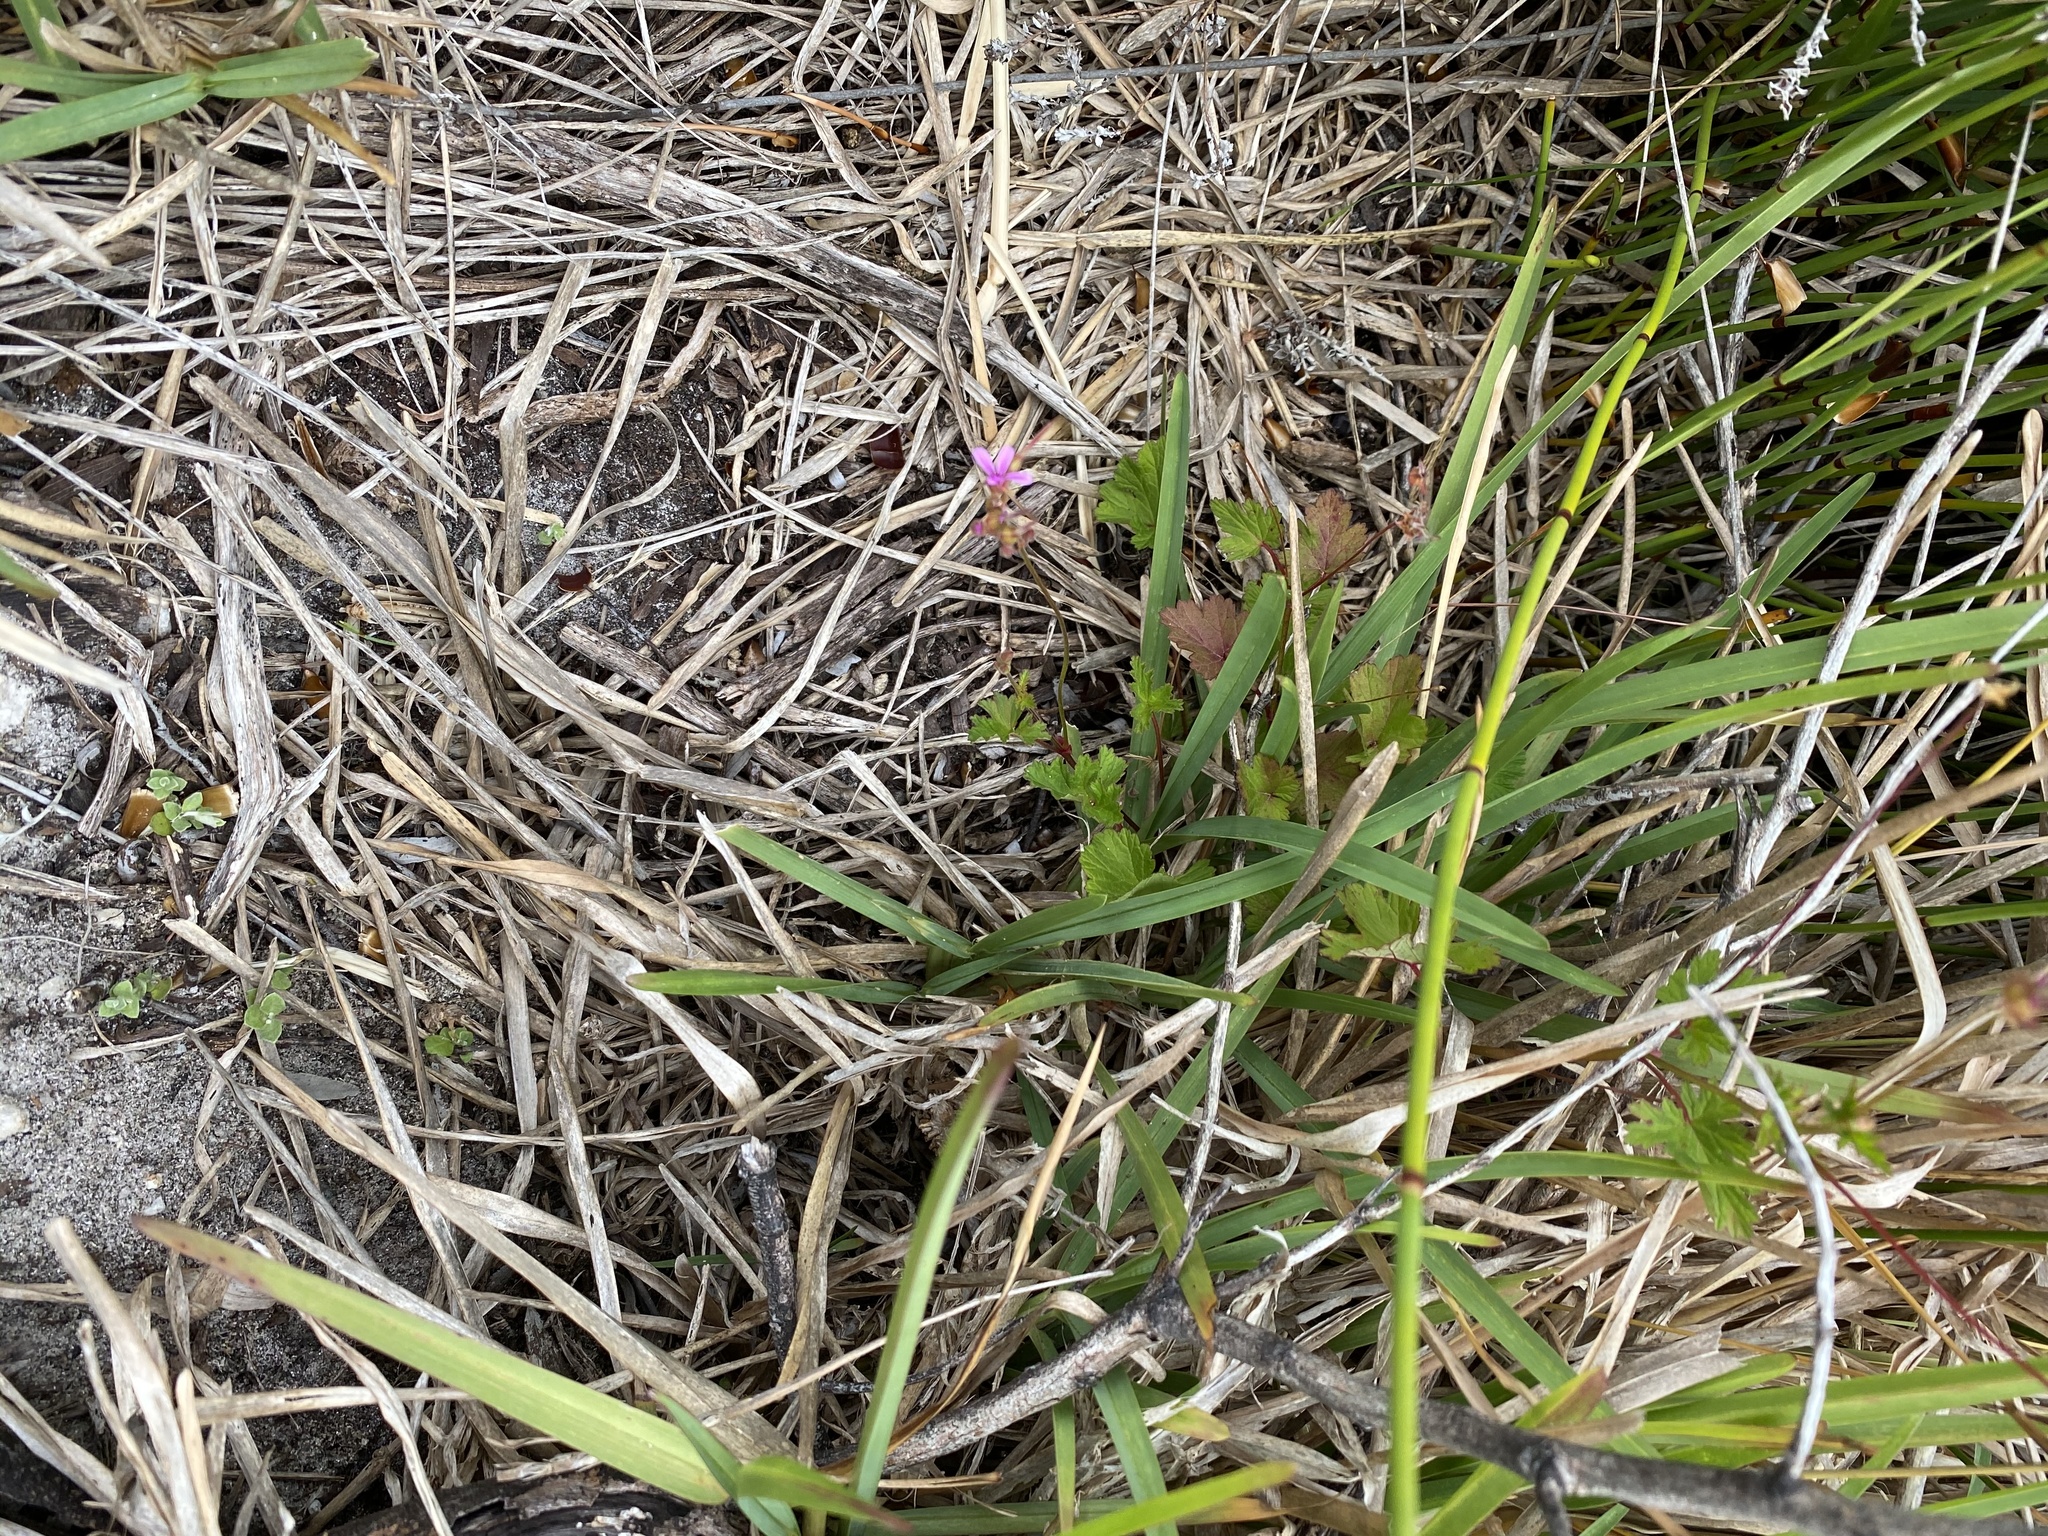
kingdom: Plantae
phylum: Tracheophyta
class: Magnoliopsida
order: Geraniales
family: Geraniaceae
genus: Pelargonium
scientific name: Pelargonium grossularioides
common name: Gooseberry geranium
